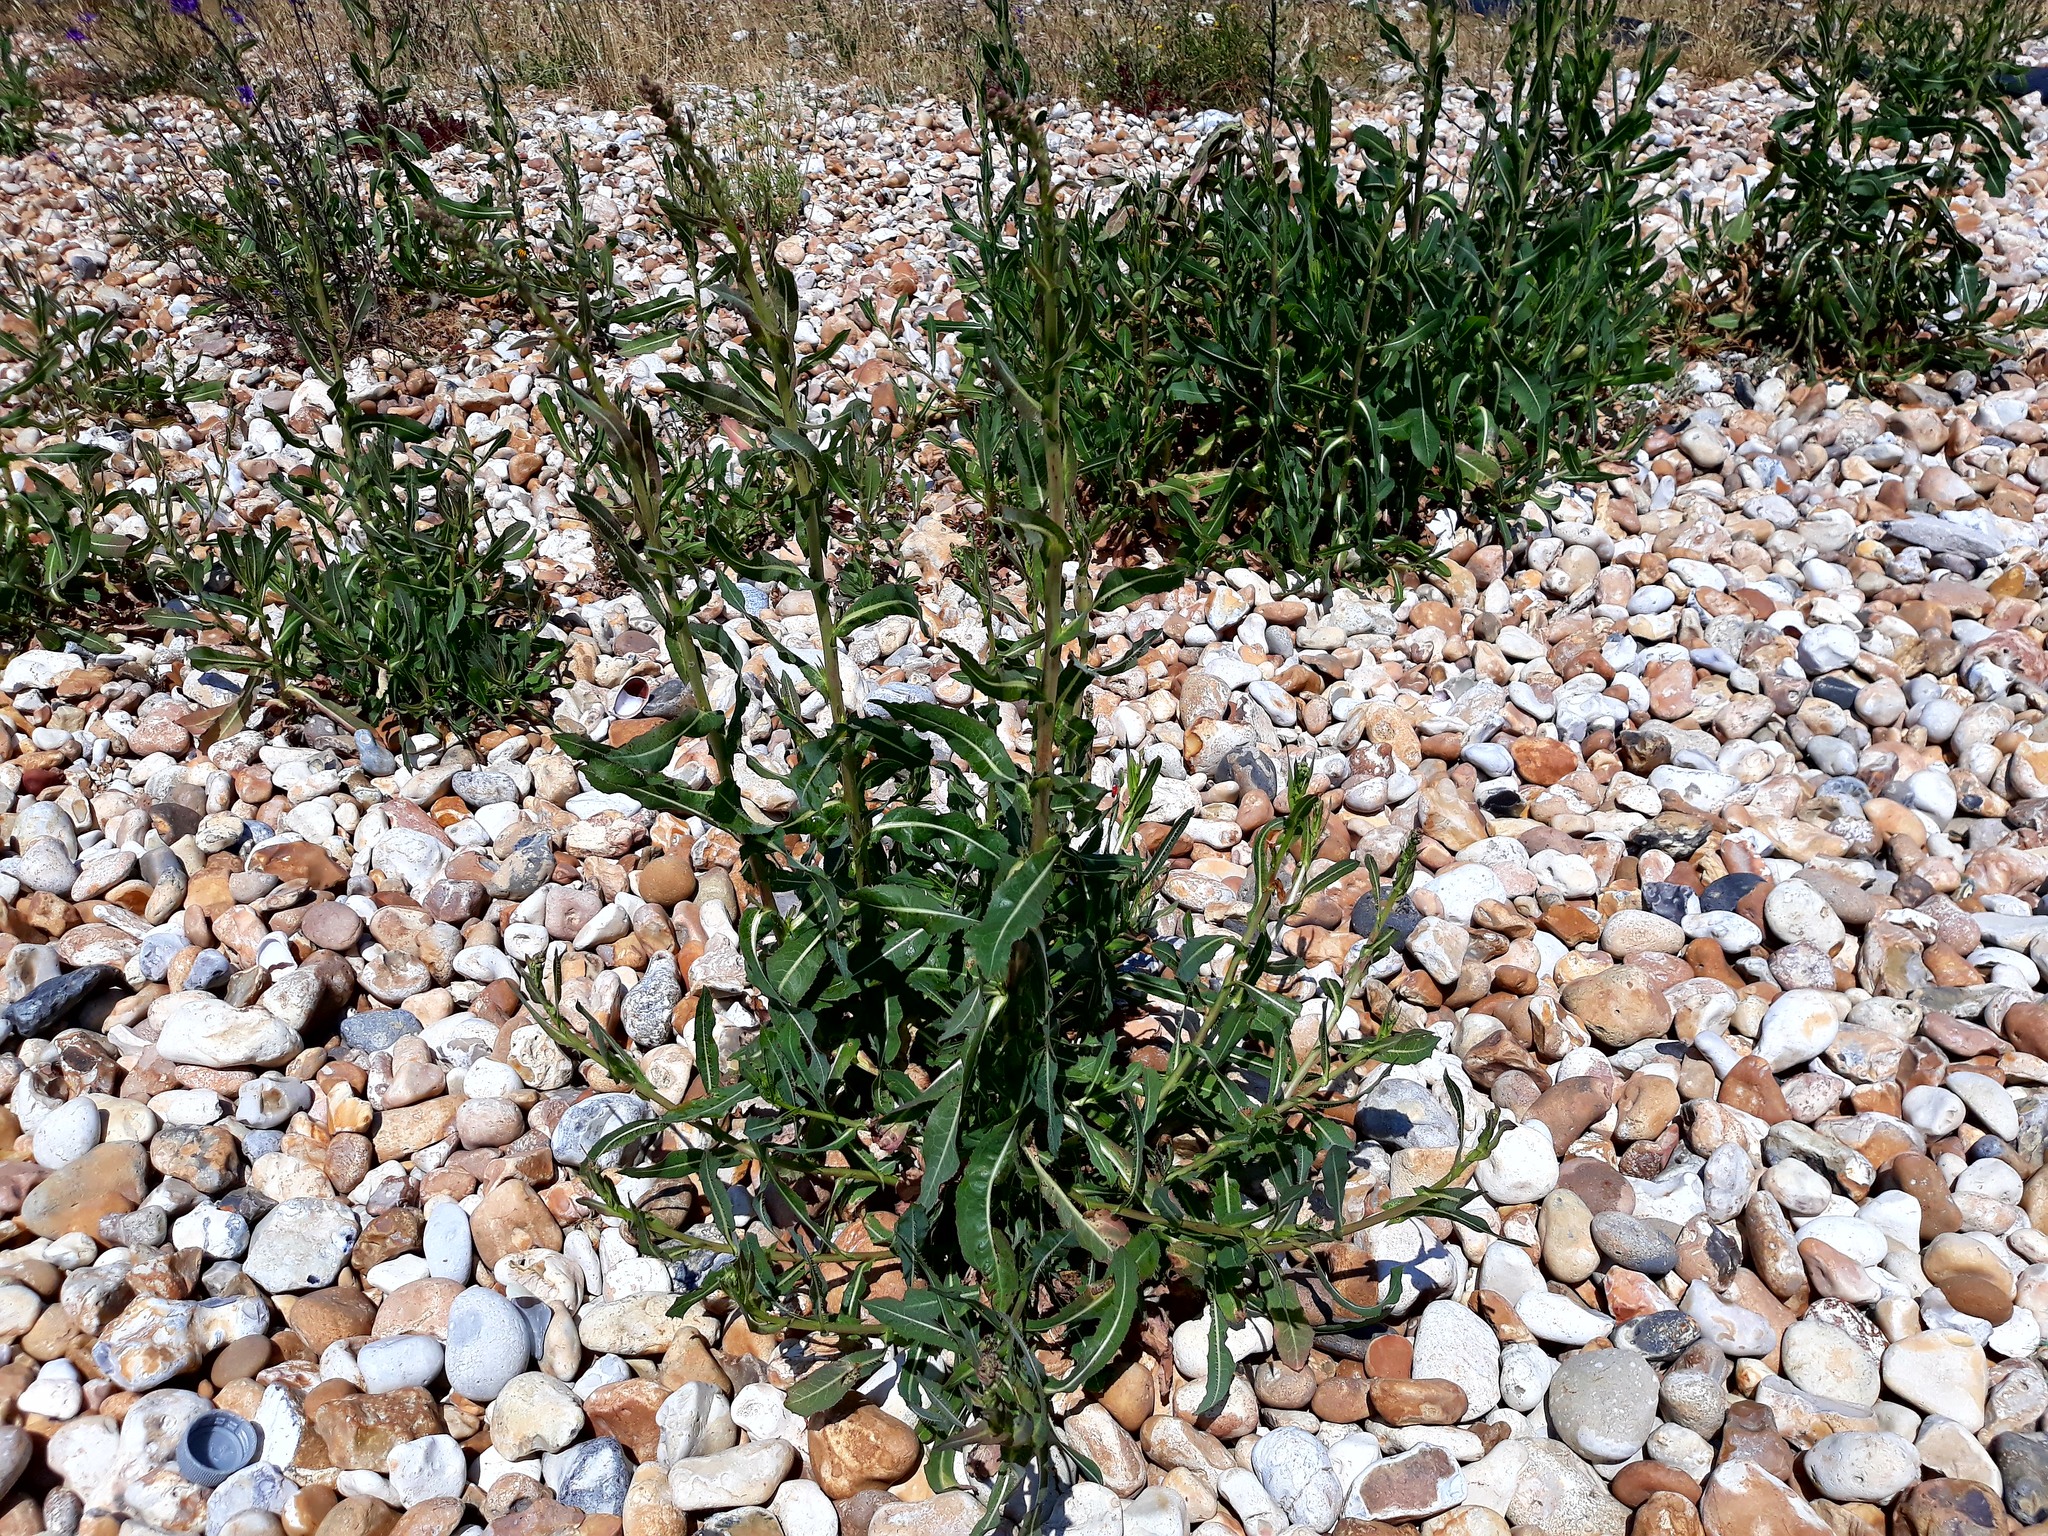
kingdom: Plantae
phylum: Tracheophyta
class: Magnoliopsida
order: Asterales
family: Asteraceae
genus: Lactuca
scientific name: Lactuca serriola
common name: Prickly lettuce
